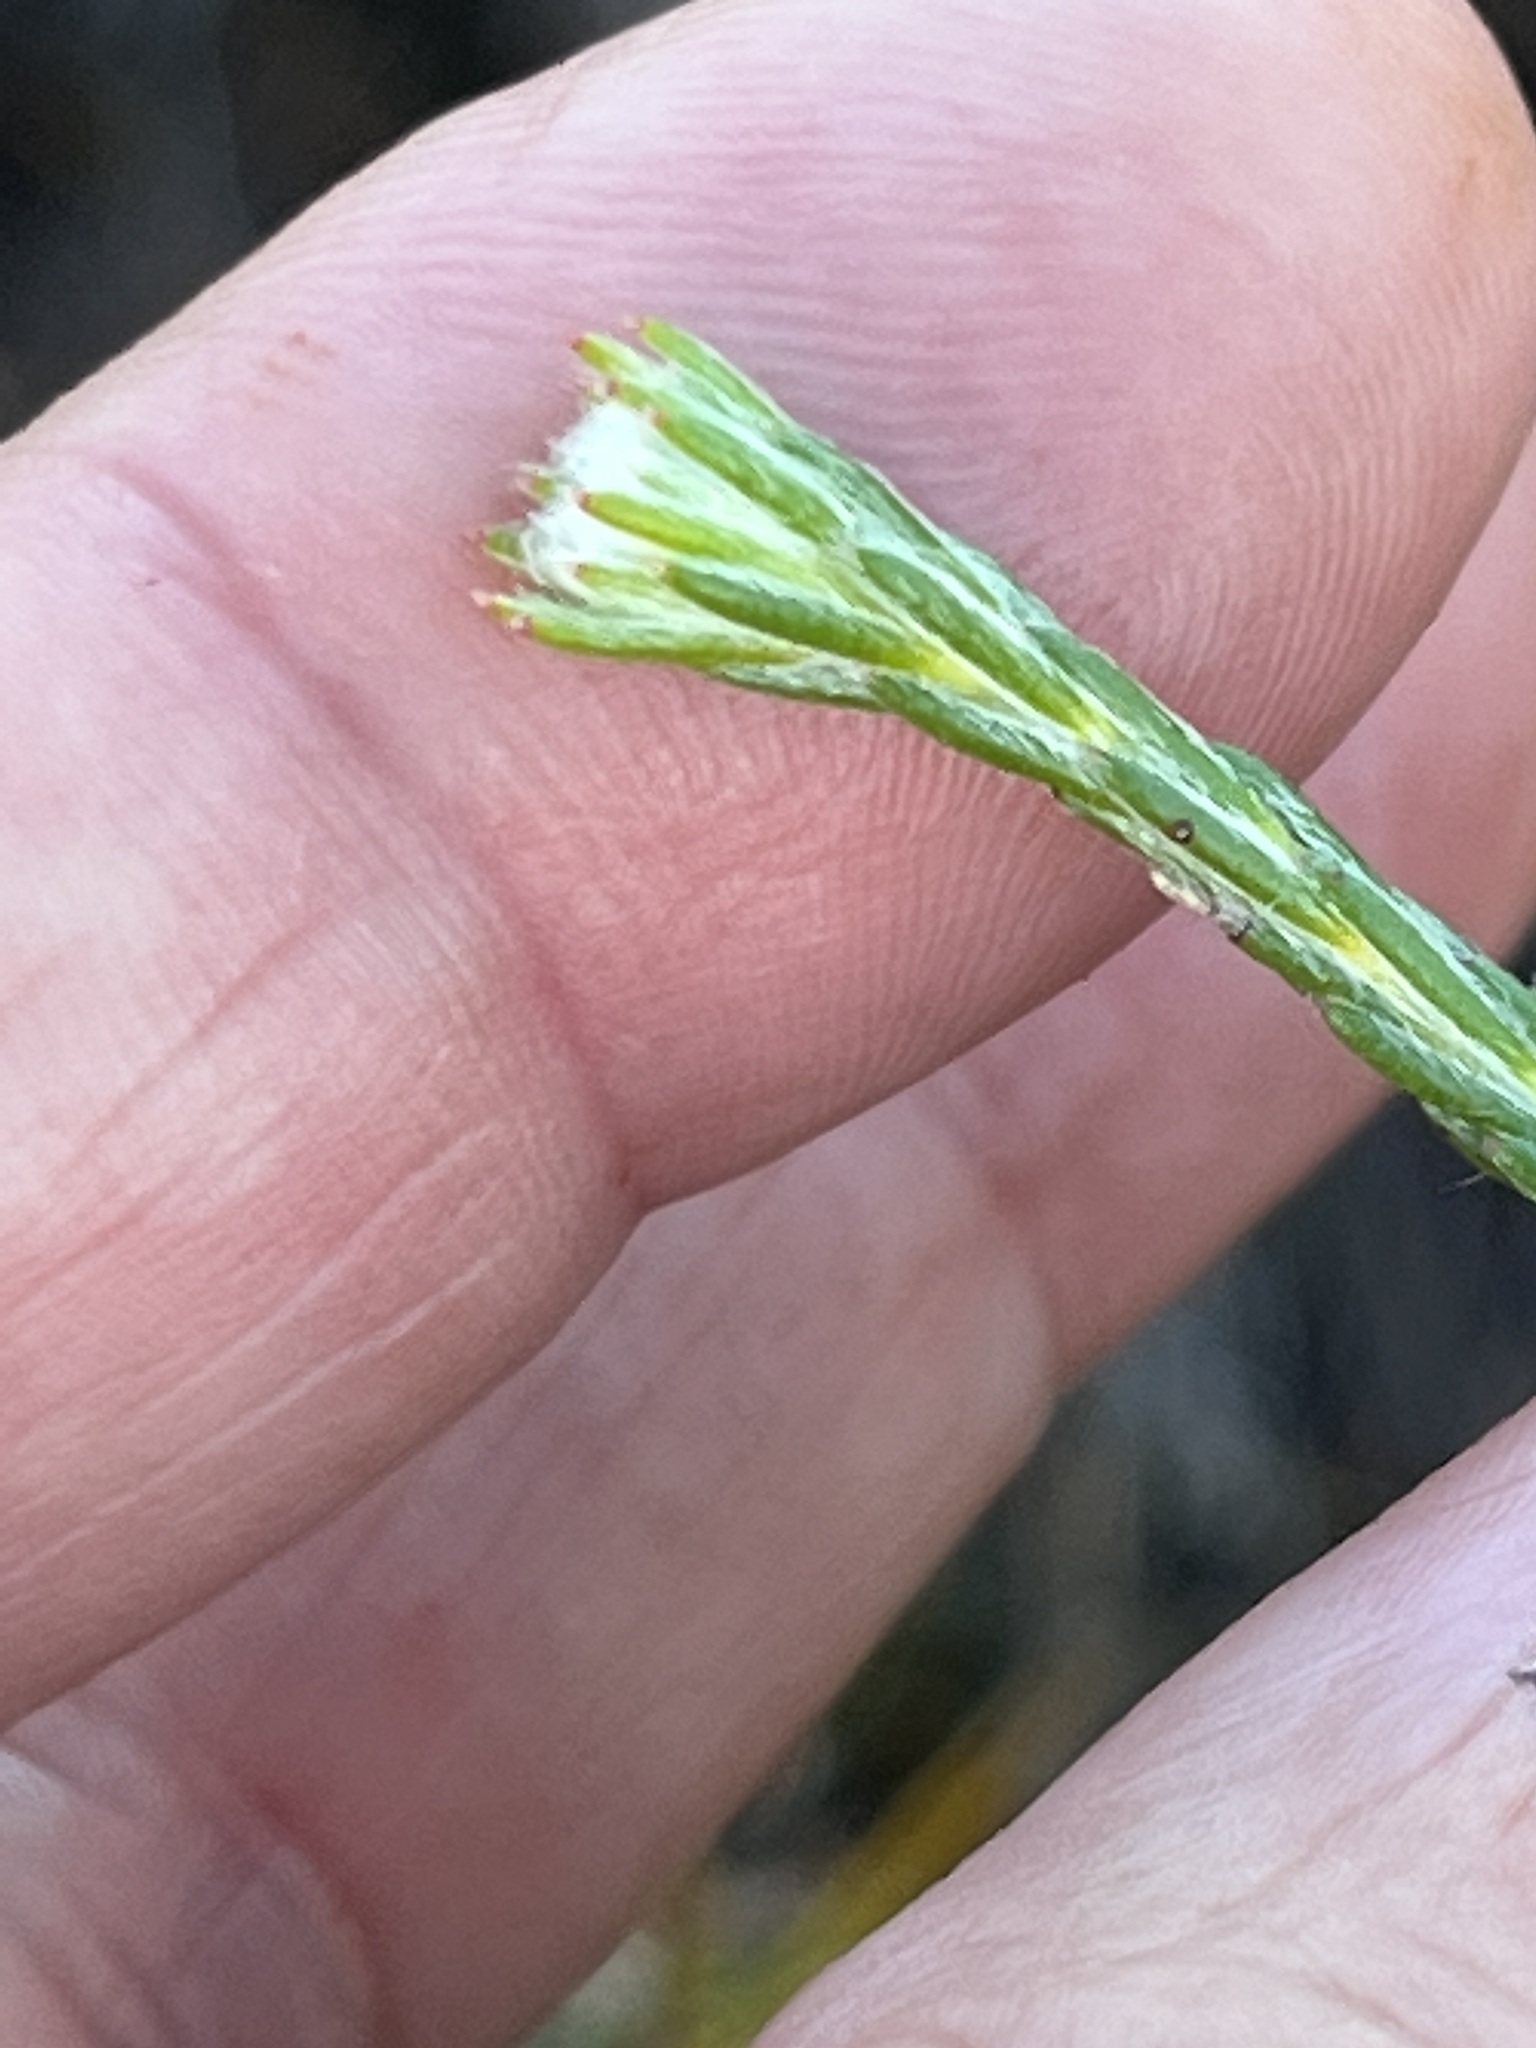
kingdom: Plantae
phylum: Tracheophyta
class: Magnoliopsida
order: Proteales
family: Proteaceae
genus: Spatalla
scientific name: Spatalla ericoides
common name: Erica-leaf spoon
